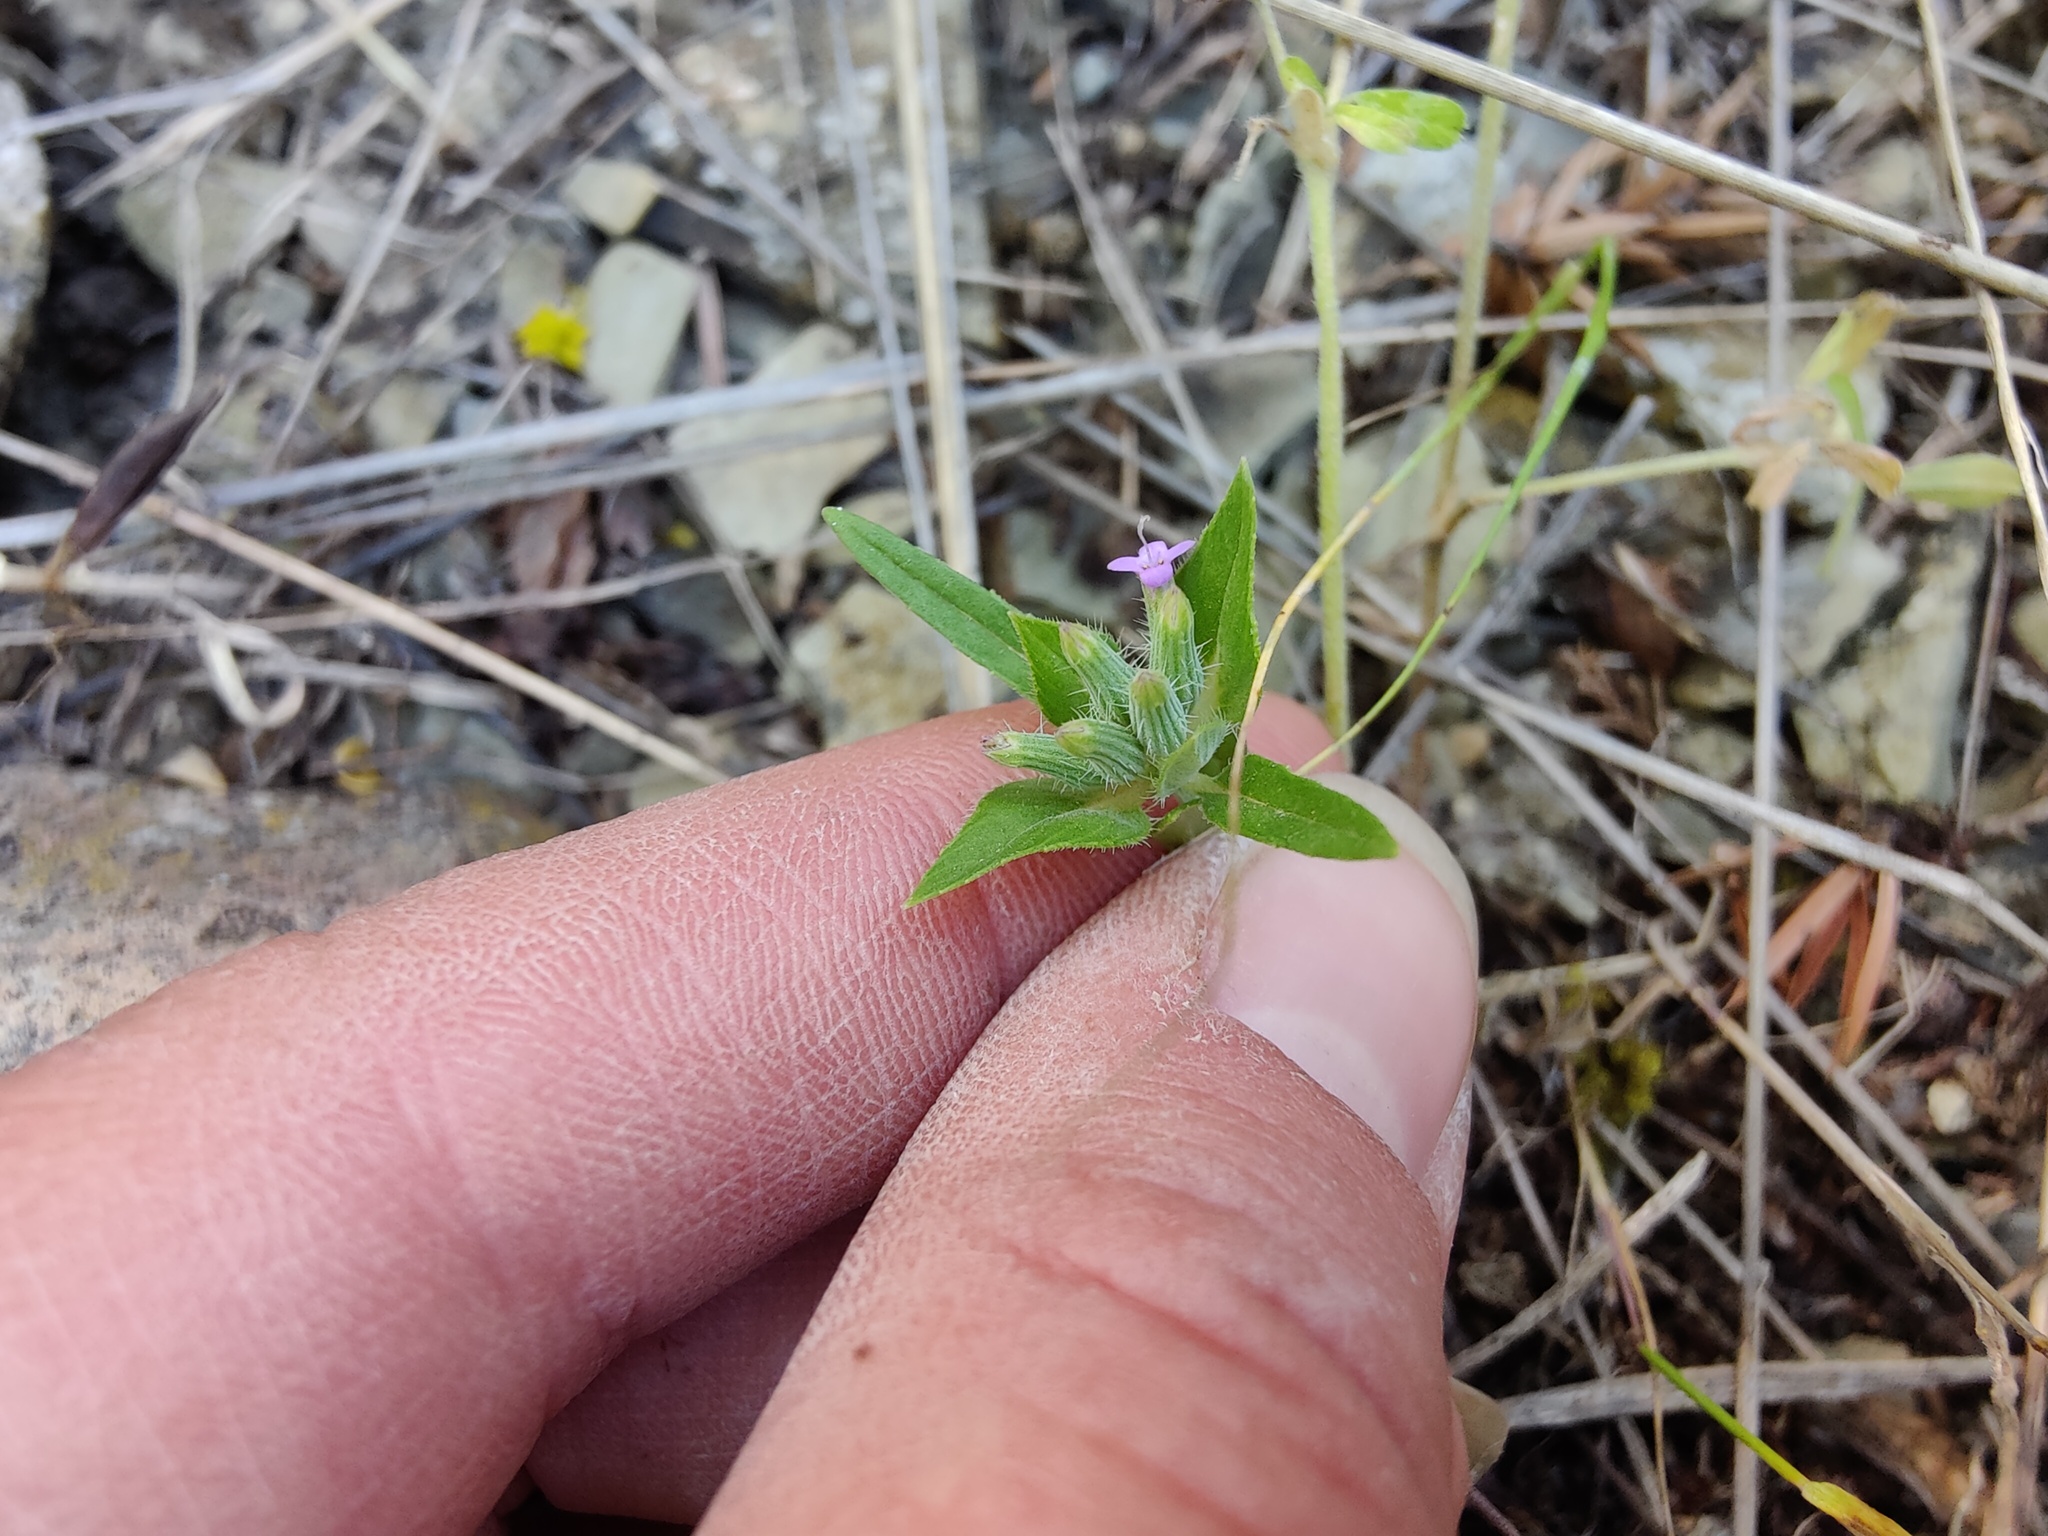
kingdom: Plantae
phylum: Tracheophyta
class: Magnoliopsida
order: Lamiales
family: Lamiaceae
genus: Ziziphora
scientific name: Ziziphora capitata
